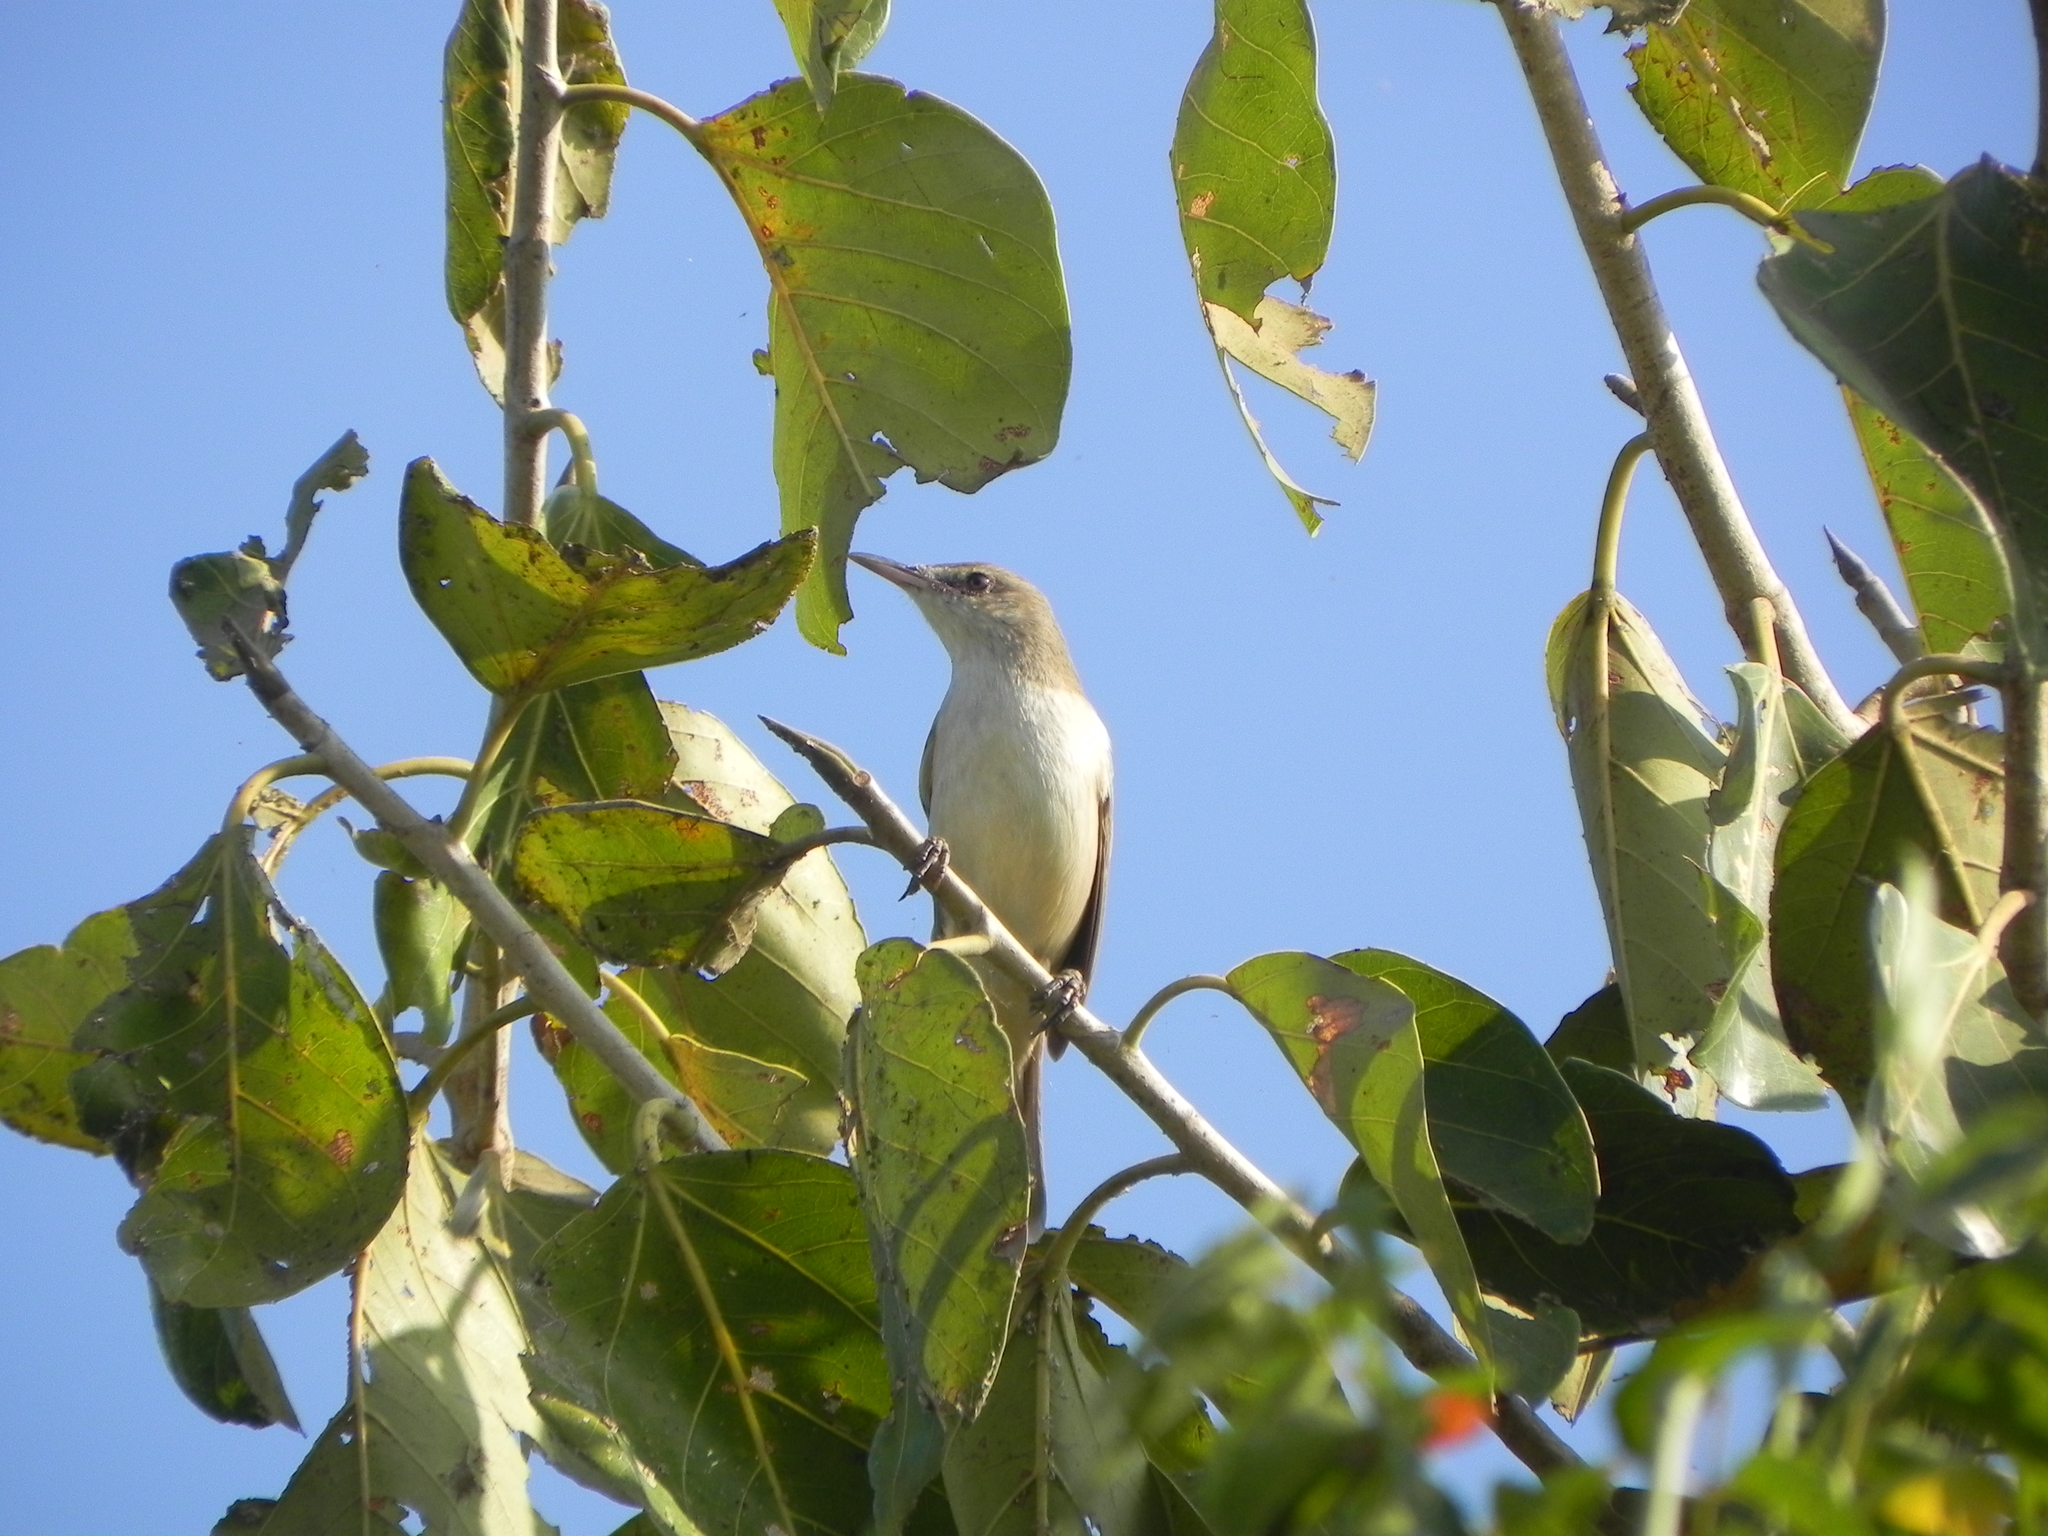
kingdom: Animalia
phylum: Chordata
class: Aves
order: Passeriformes
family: Acrocephalidae
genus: Acrocephalus
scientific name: Acrocephalus stentoreus
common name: Clamorous reed warbler
